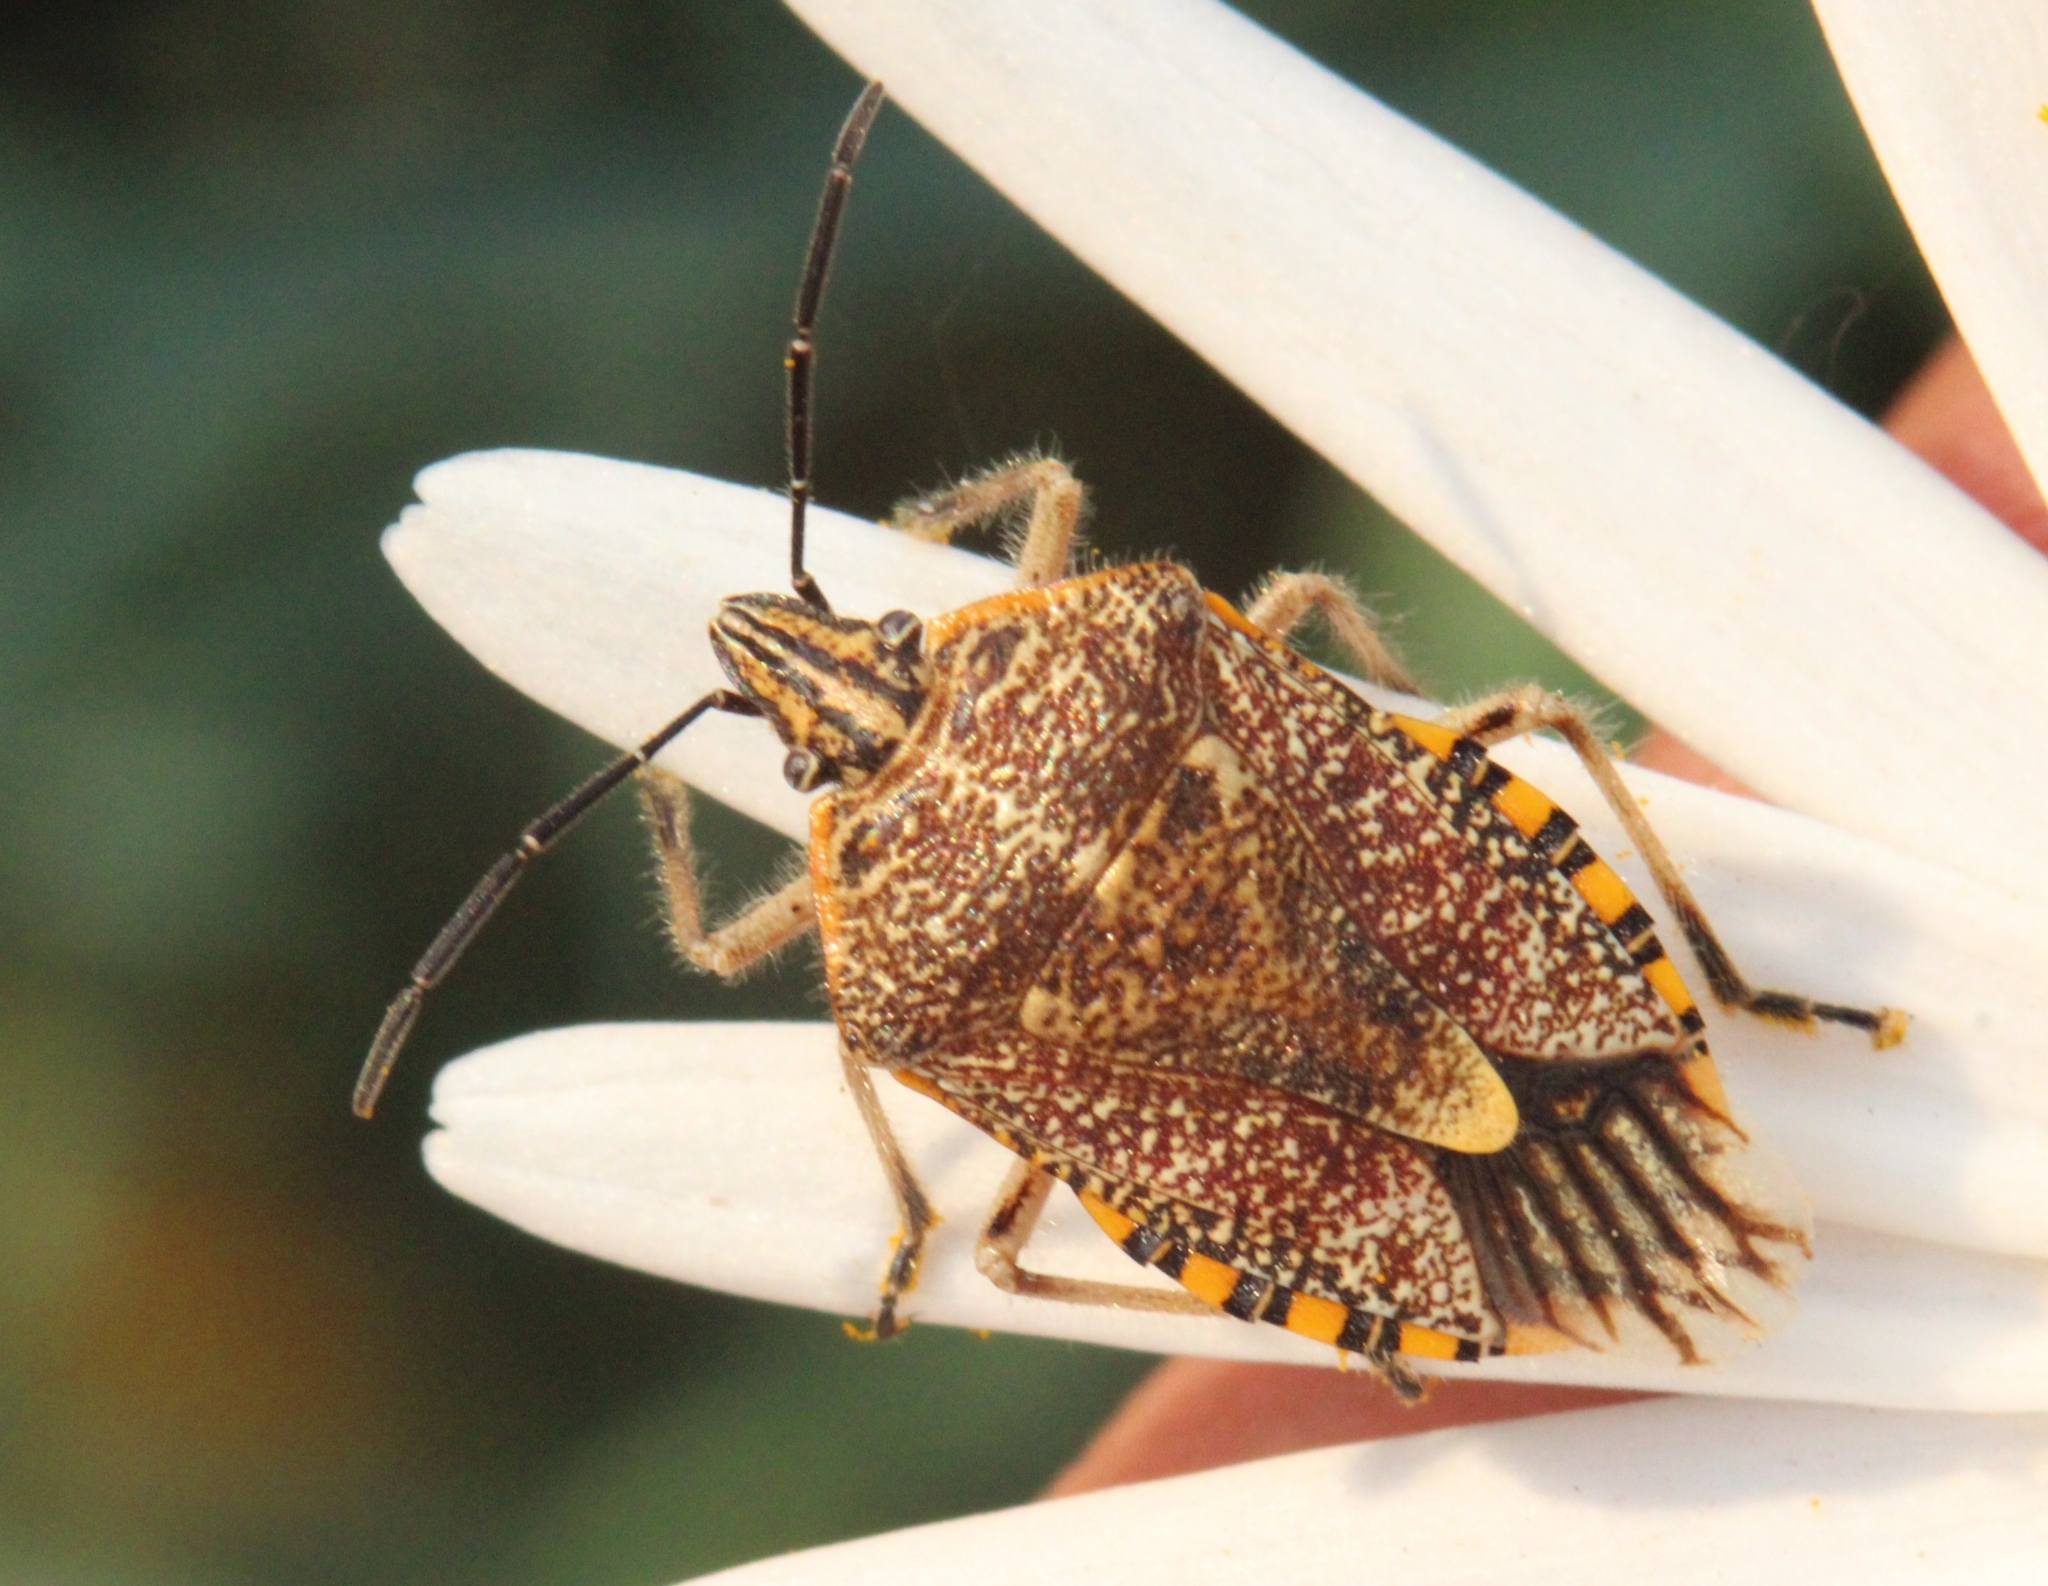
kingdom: Animalia
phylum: Arthropoda
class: Insecta
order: Hemiptera
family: Pentatomidae
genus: Agonoscelis
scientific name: Agonoscelis versicoloratus
